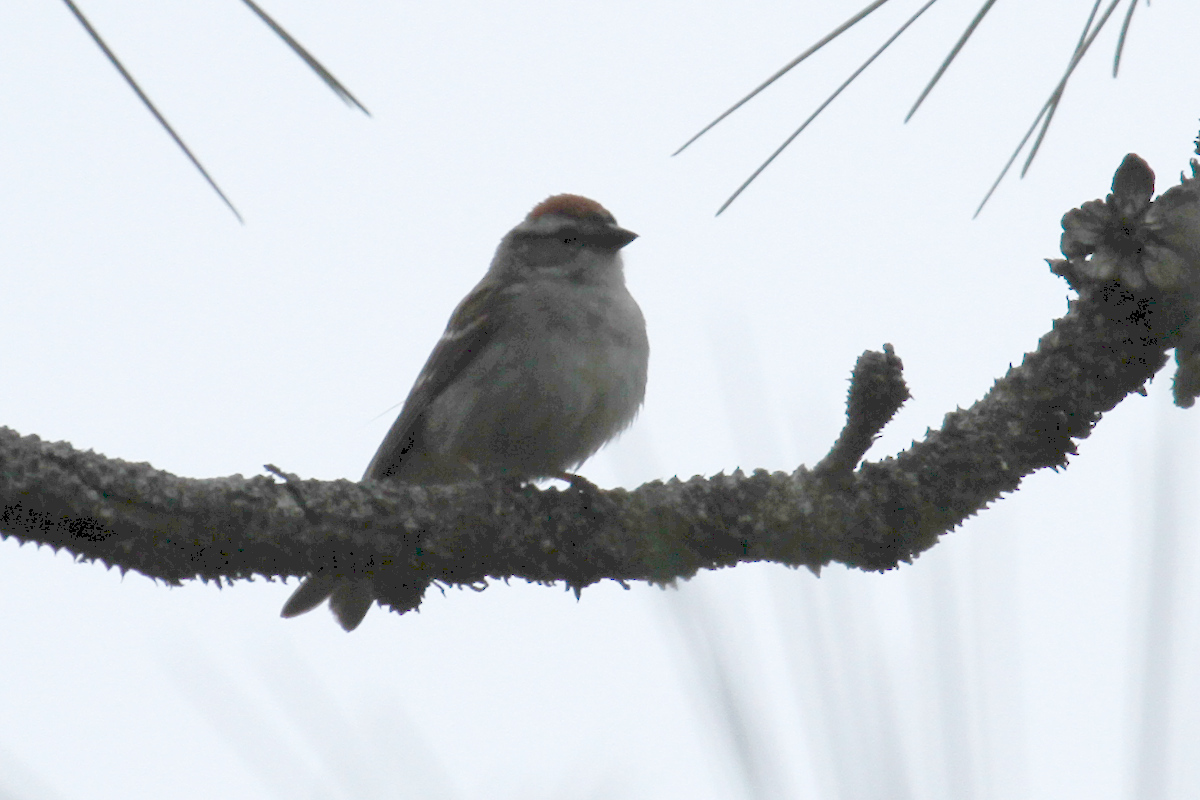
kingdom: Animalia
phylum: Chordata
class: Aves
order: Passeriformes
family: Passerellidae
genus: Spizella
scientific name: Spizella passerina
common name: Chipping sparrow
